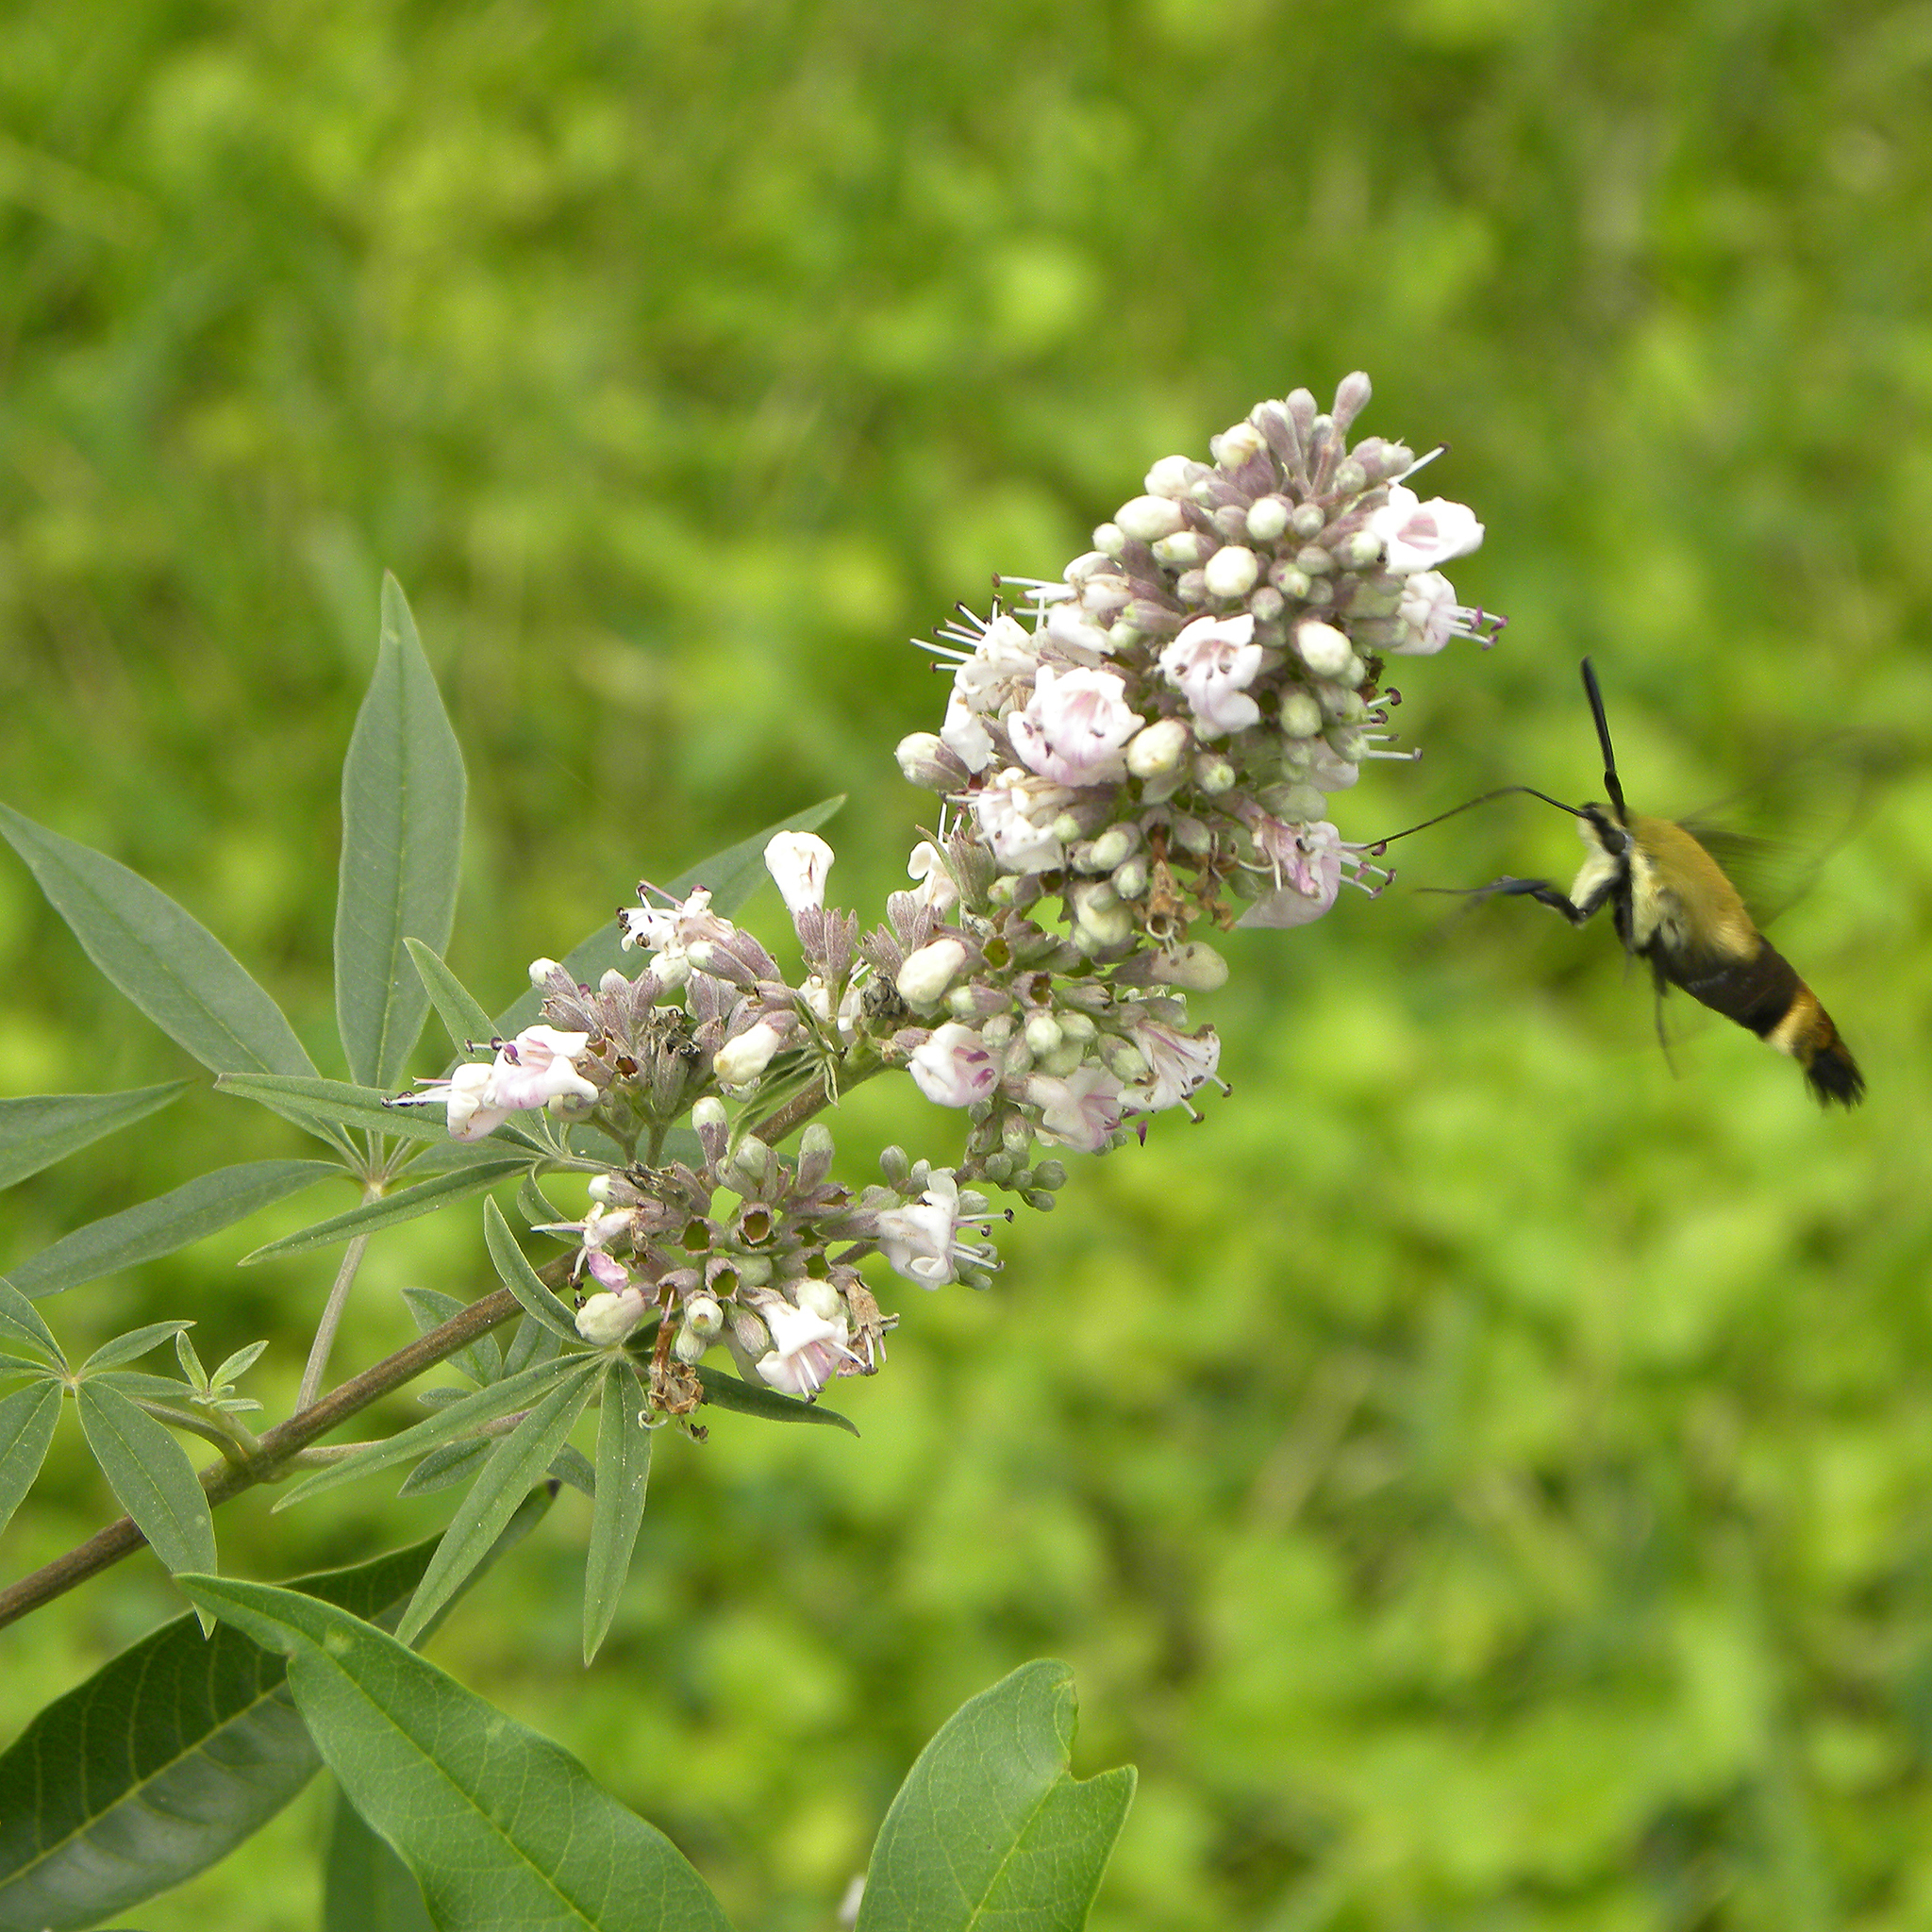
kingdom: Animalia
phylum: Arthropoda
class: Insecta
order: Lepidoptera
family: Sphingidae
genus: Hemaris
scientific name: Hemaris diffinis
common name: Bumblebee moth
